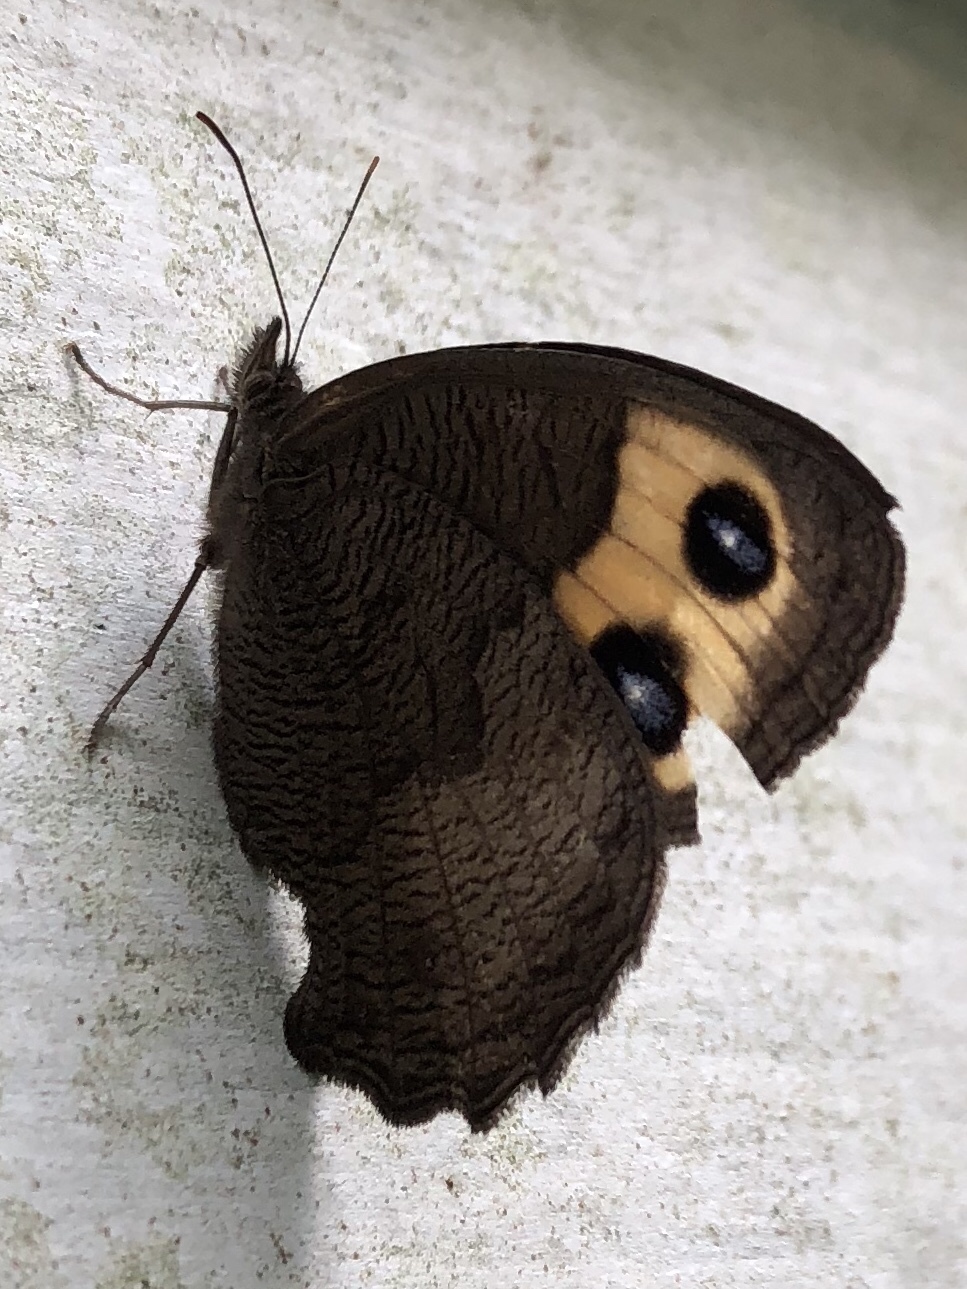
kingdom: Animalia
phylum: Arthropoda
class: Insecta
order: Lepidoptera
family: Nymphalidae
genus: Cercyonis
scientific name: Cercyonis pegala
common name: Common wood-nymph
